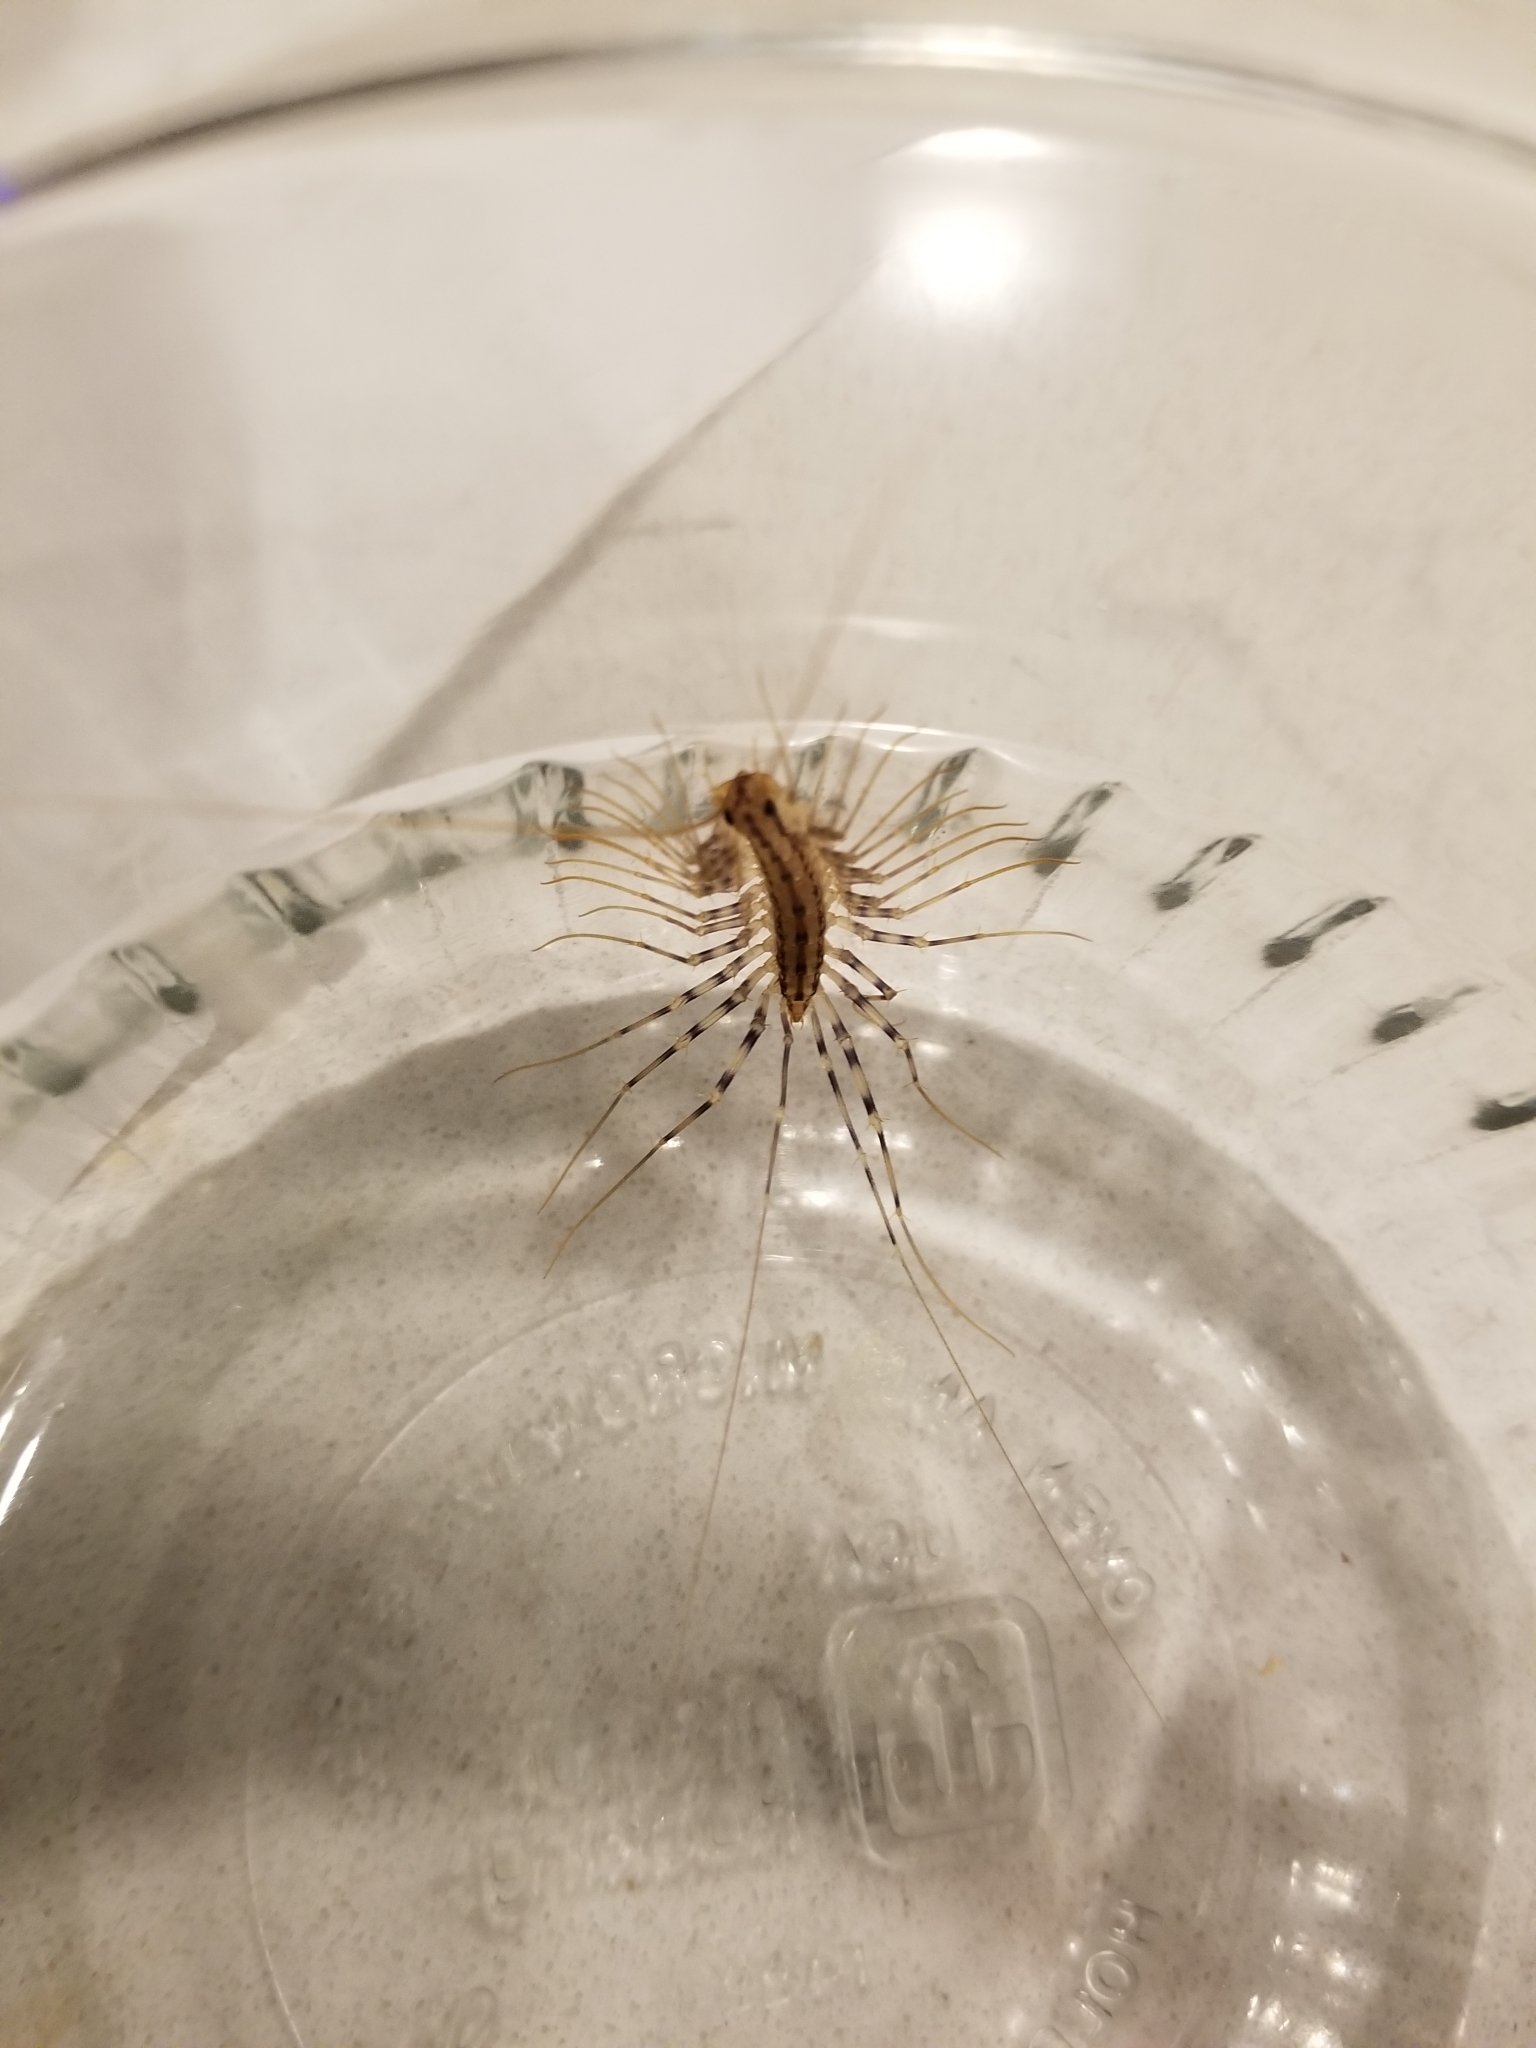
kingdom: Animalia
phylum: Arthropoda
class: Chilopoda
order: Scutigeromorpha
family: Scutigeridae
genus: Scutigera
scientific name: Scutigera coleoptrata
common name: House centipede
